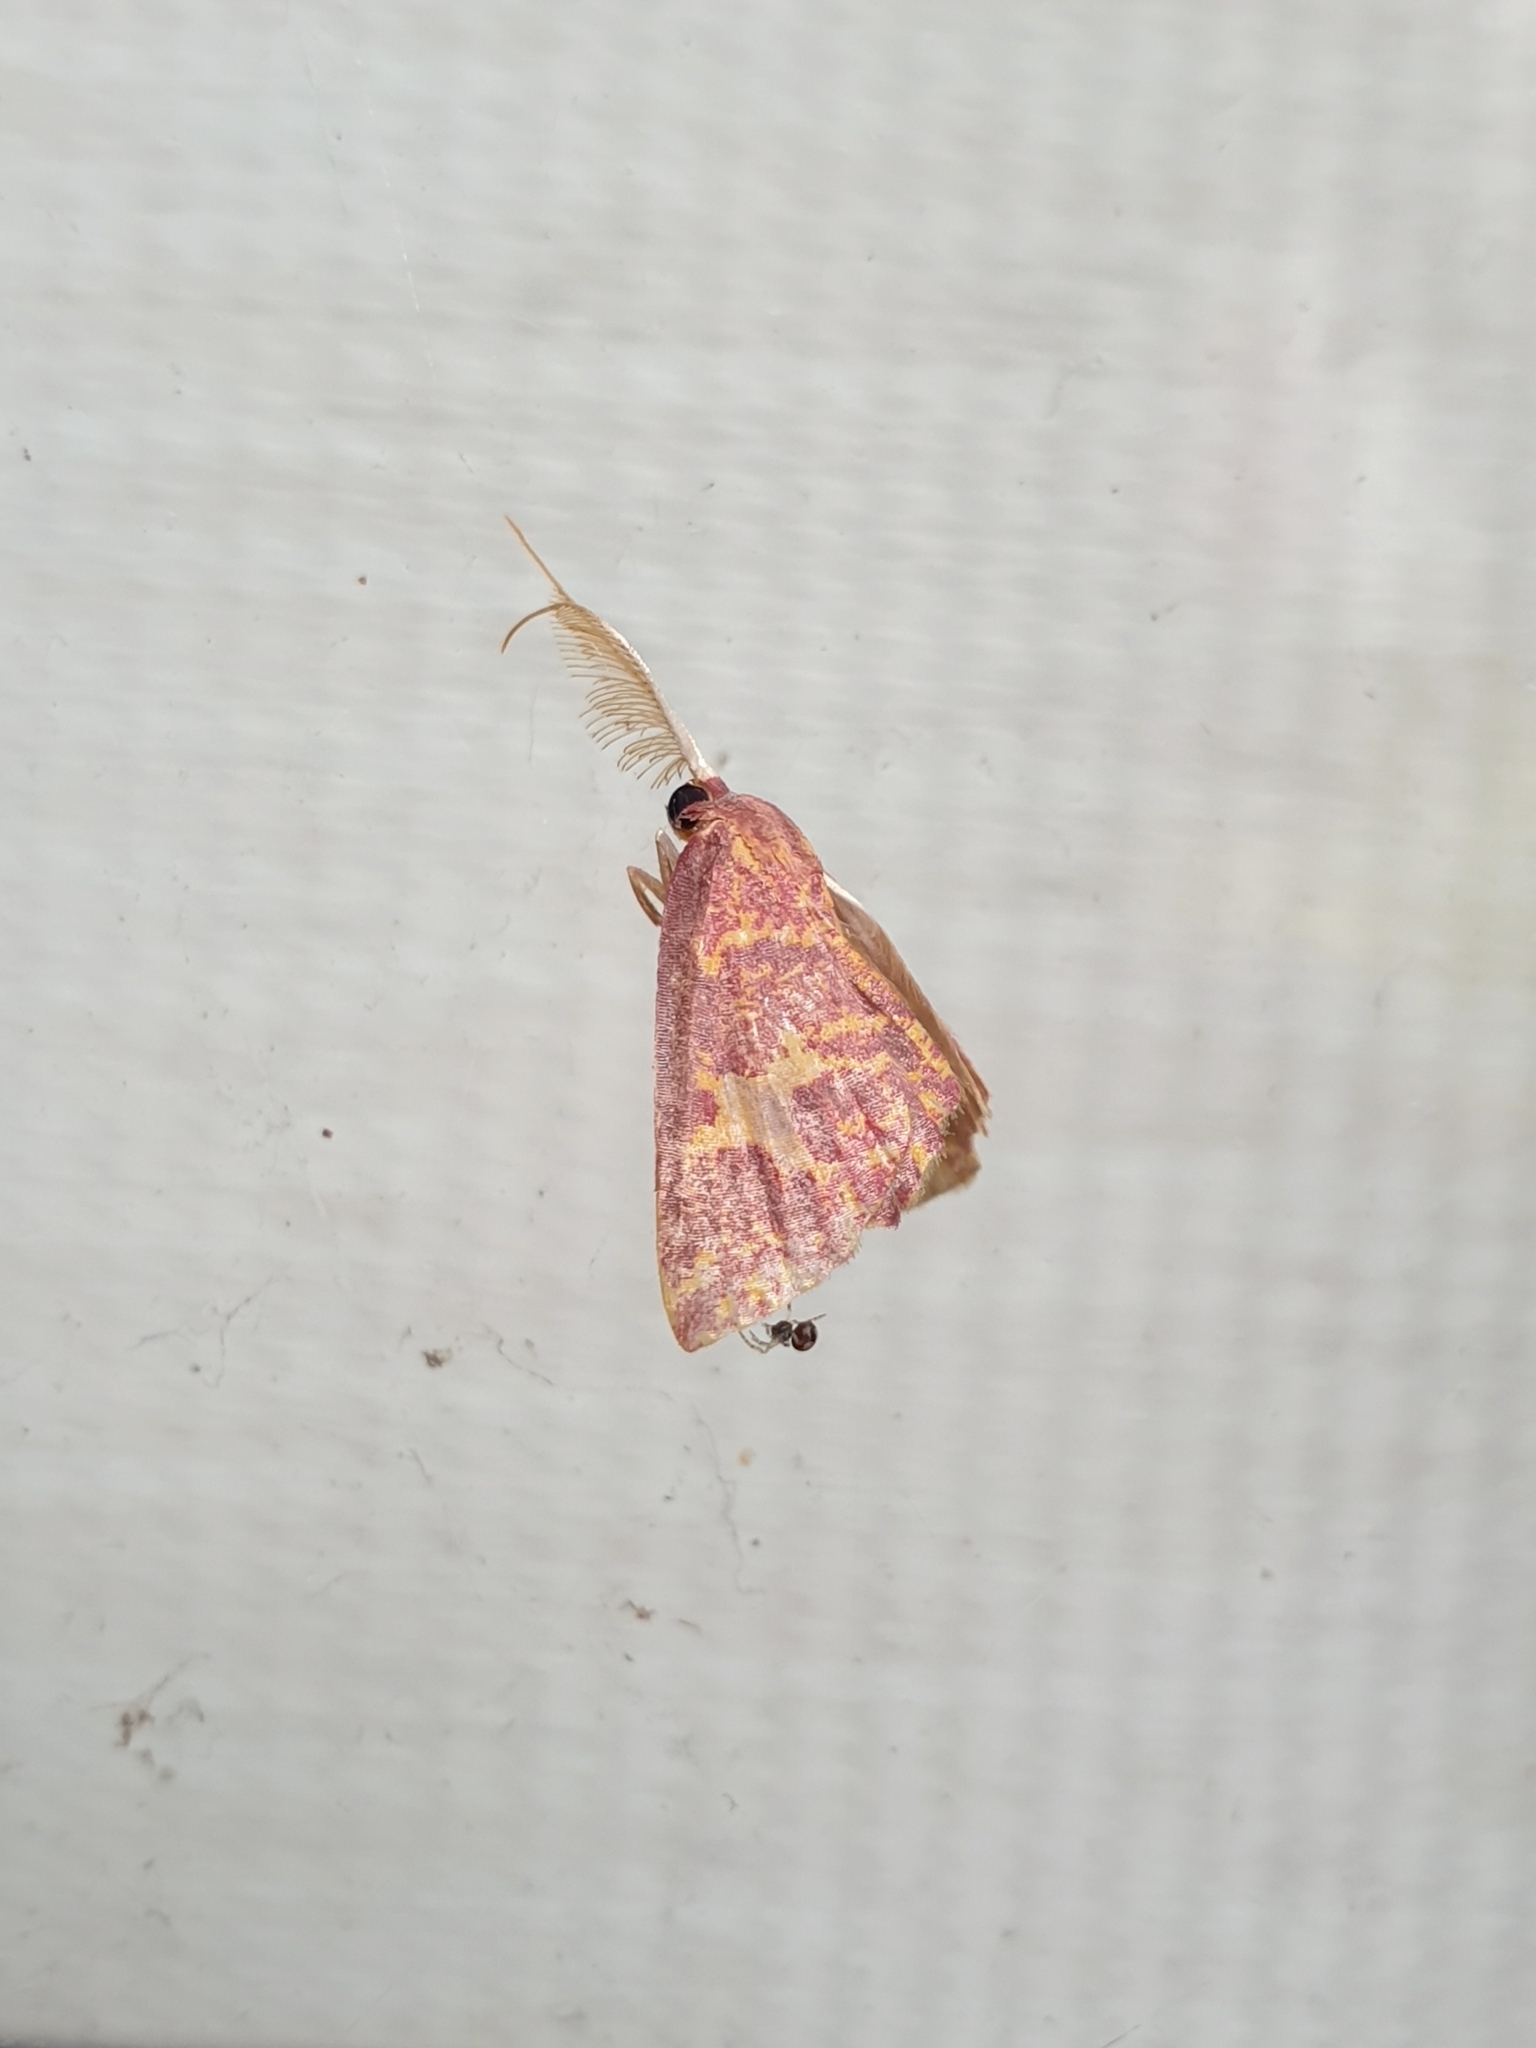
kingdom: Animalia
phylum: Arthropoda
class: Insecta
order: Lepidoptera
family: Geometridae
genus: Chrysocraspeda
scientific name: Chrysocraspeda faganaria
